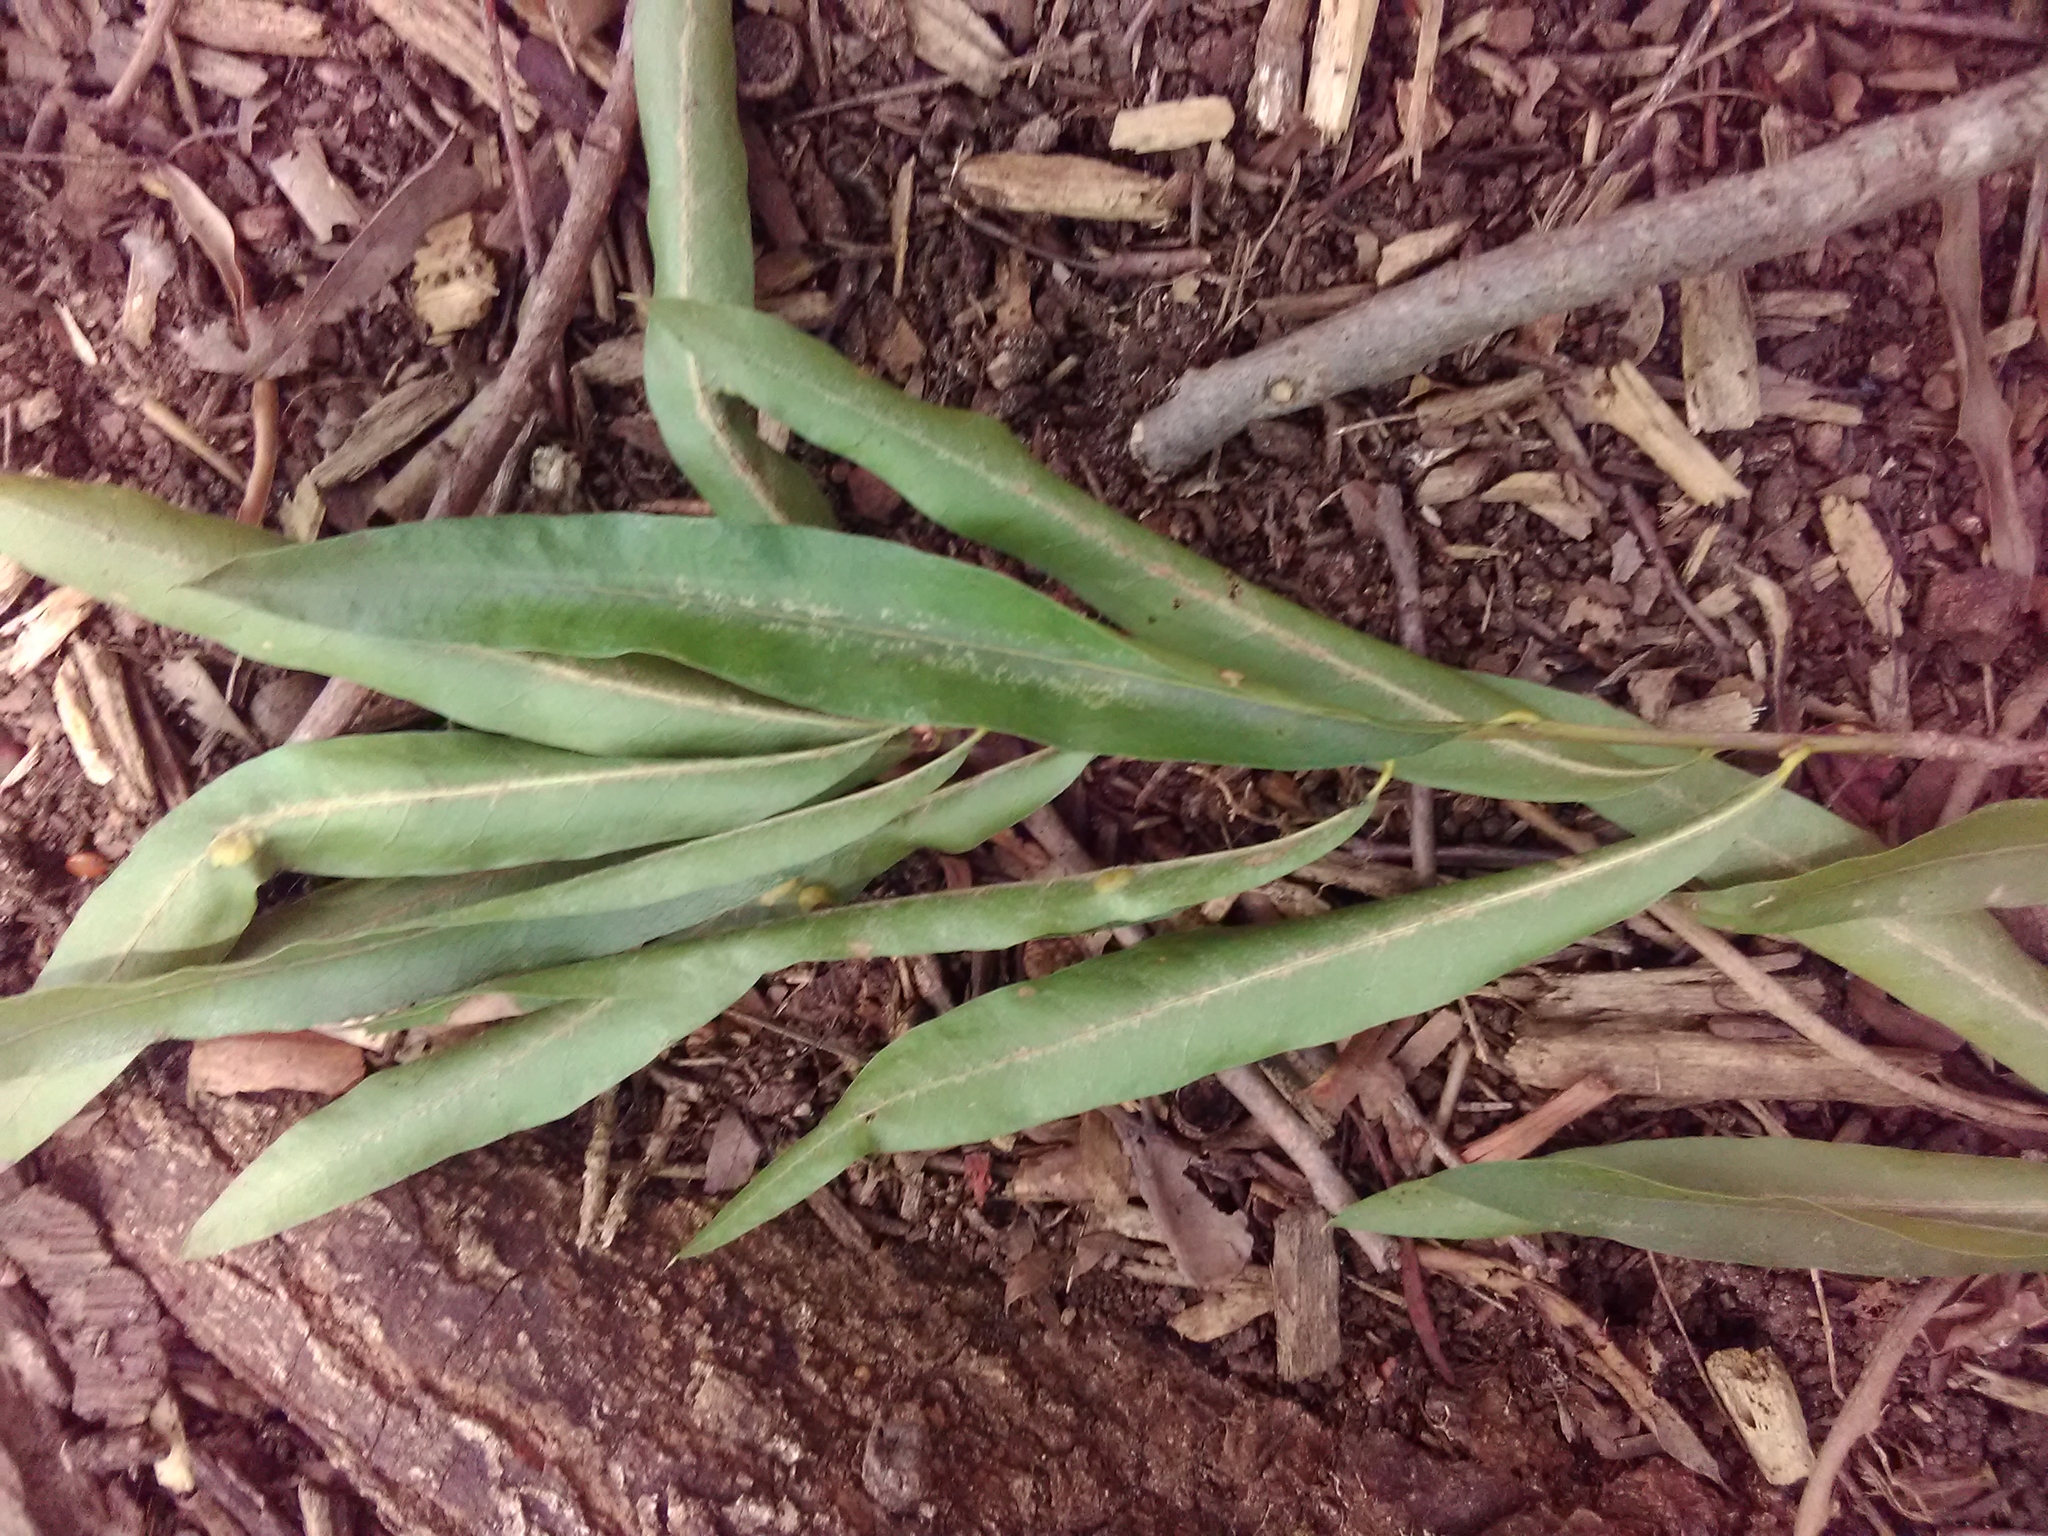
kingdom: Plantae
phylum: Tracheophyta
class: Magnoliopsida
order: Fagales
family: Fagaceae
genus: Quercus
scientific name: Quercus phellos
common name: Willow oak
